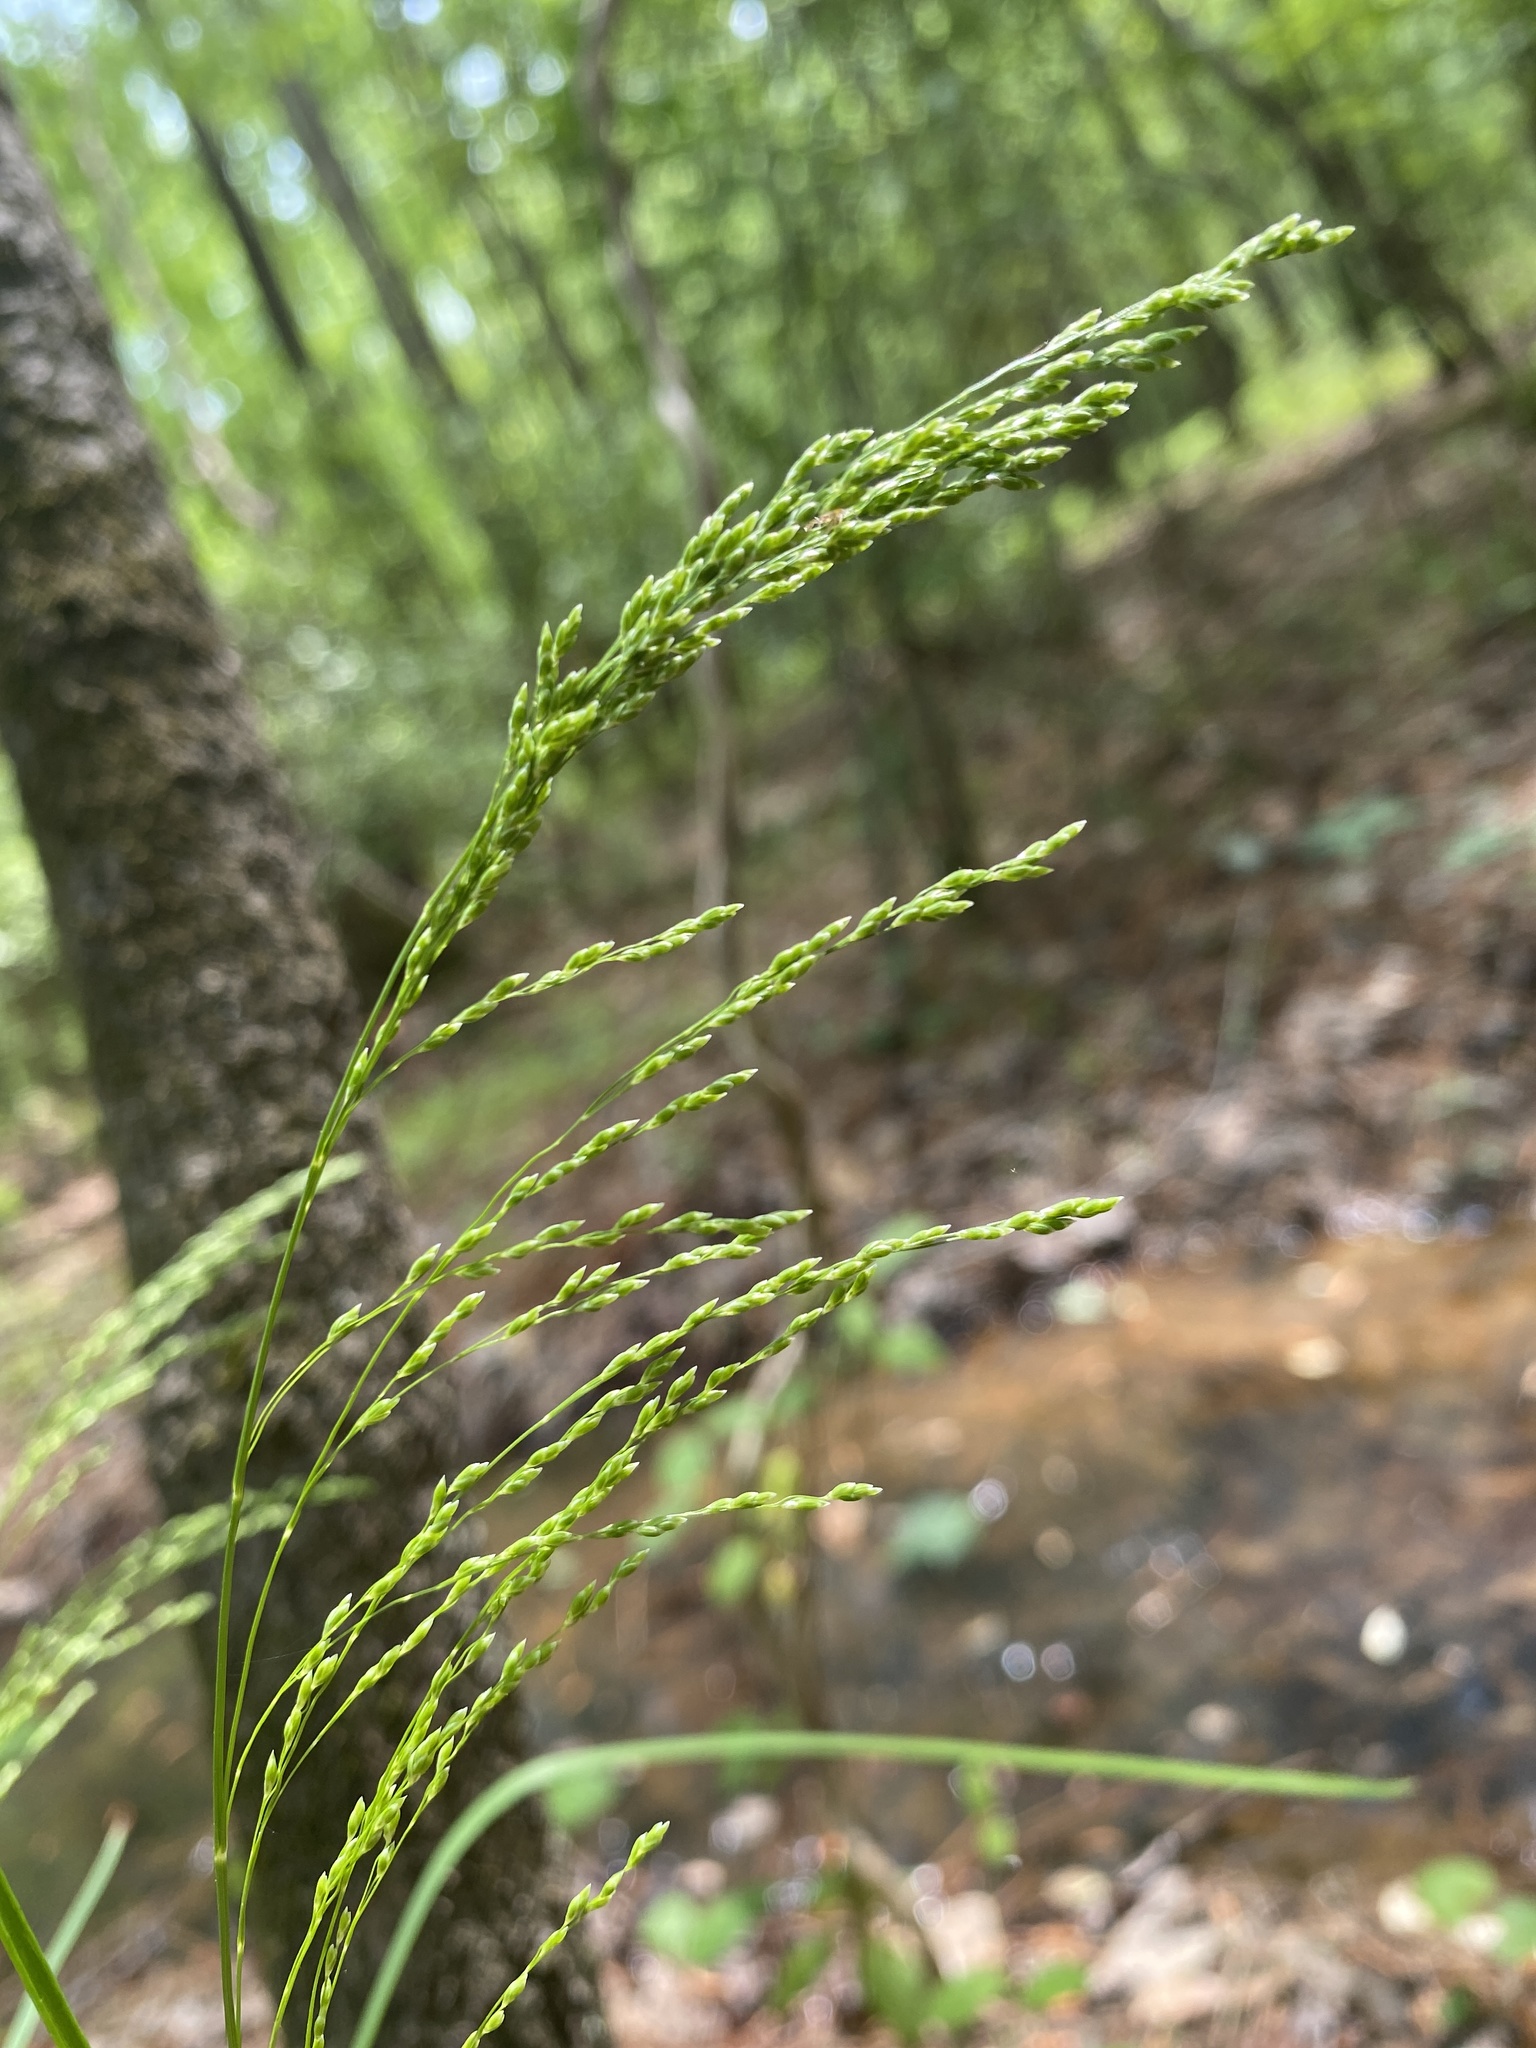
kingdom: Plantae
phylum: Tracheophyta
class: Liliopsida
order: Poales
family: Poaceae
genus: Glyceria
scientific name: Glyceria striata
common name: Fowl manna grass
